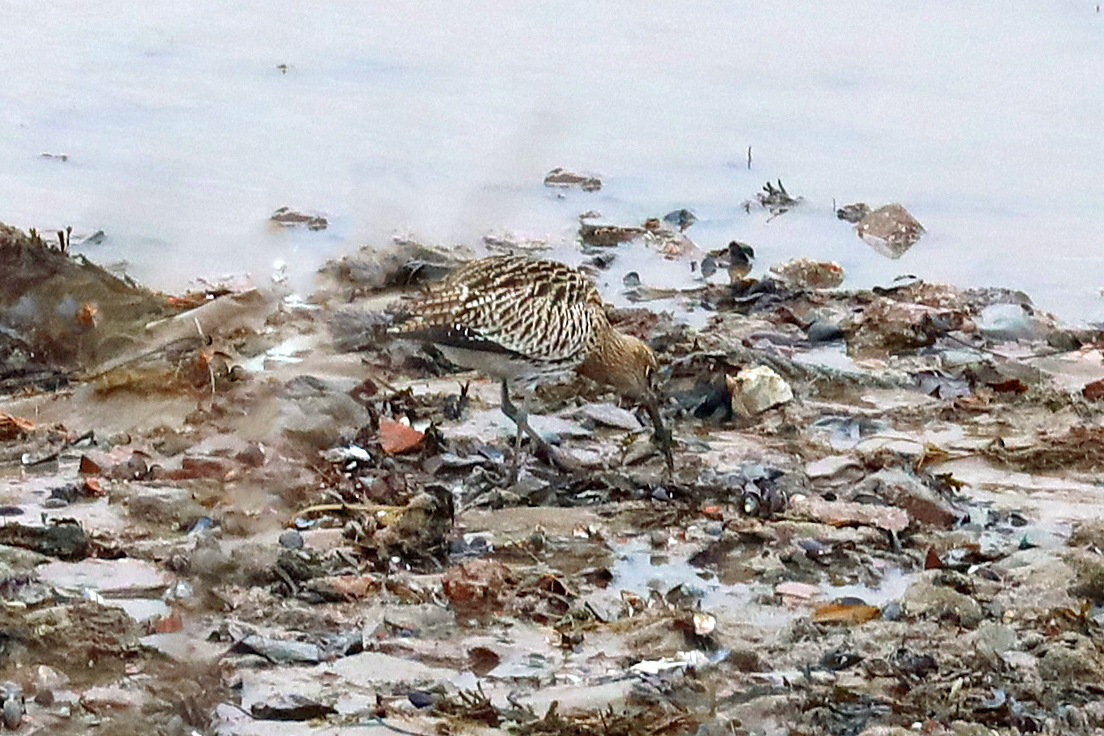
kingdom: Animalia
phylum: Chordata
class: Aves
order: Charadriiformes
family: Scolopacidae
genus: Numenius
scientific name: Numenius arquata
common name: Eurasian curlew
